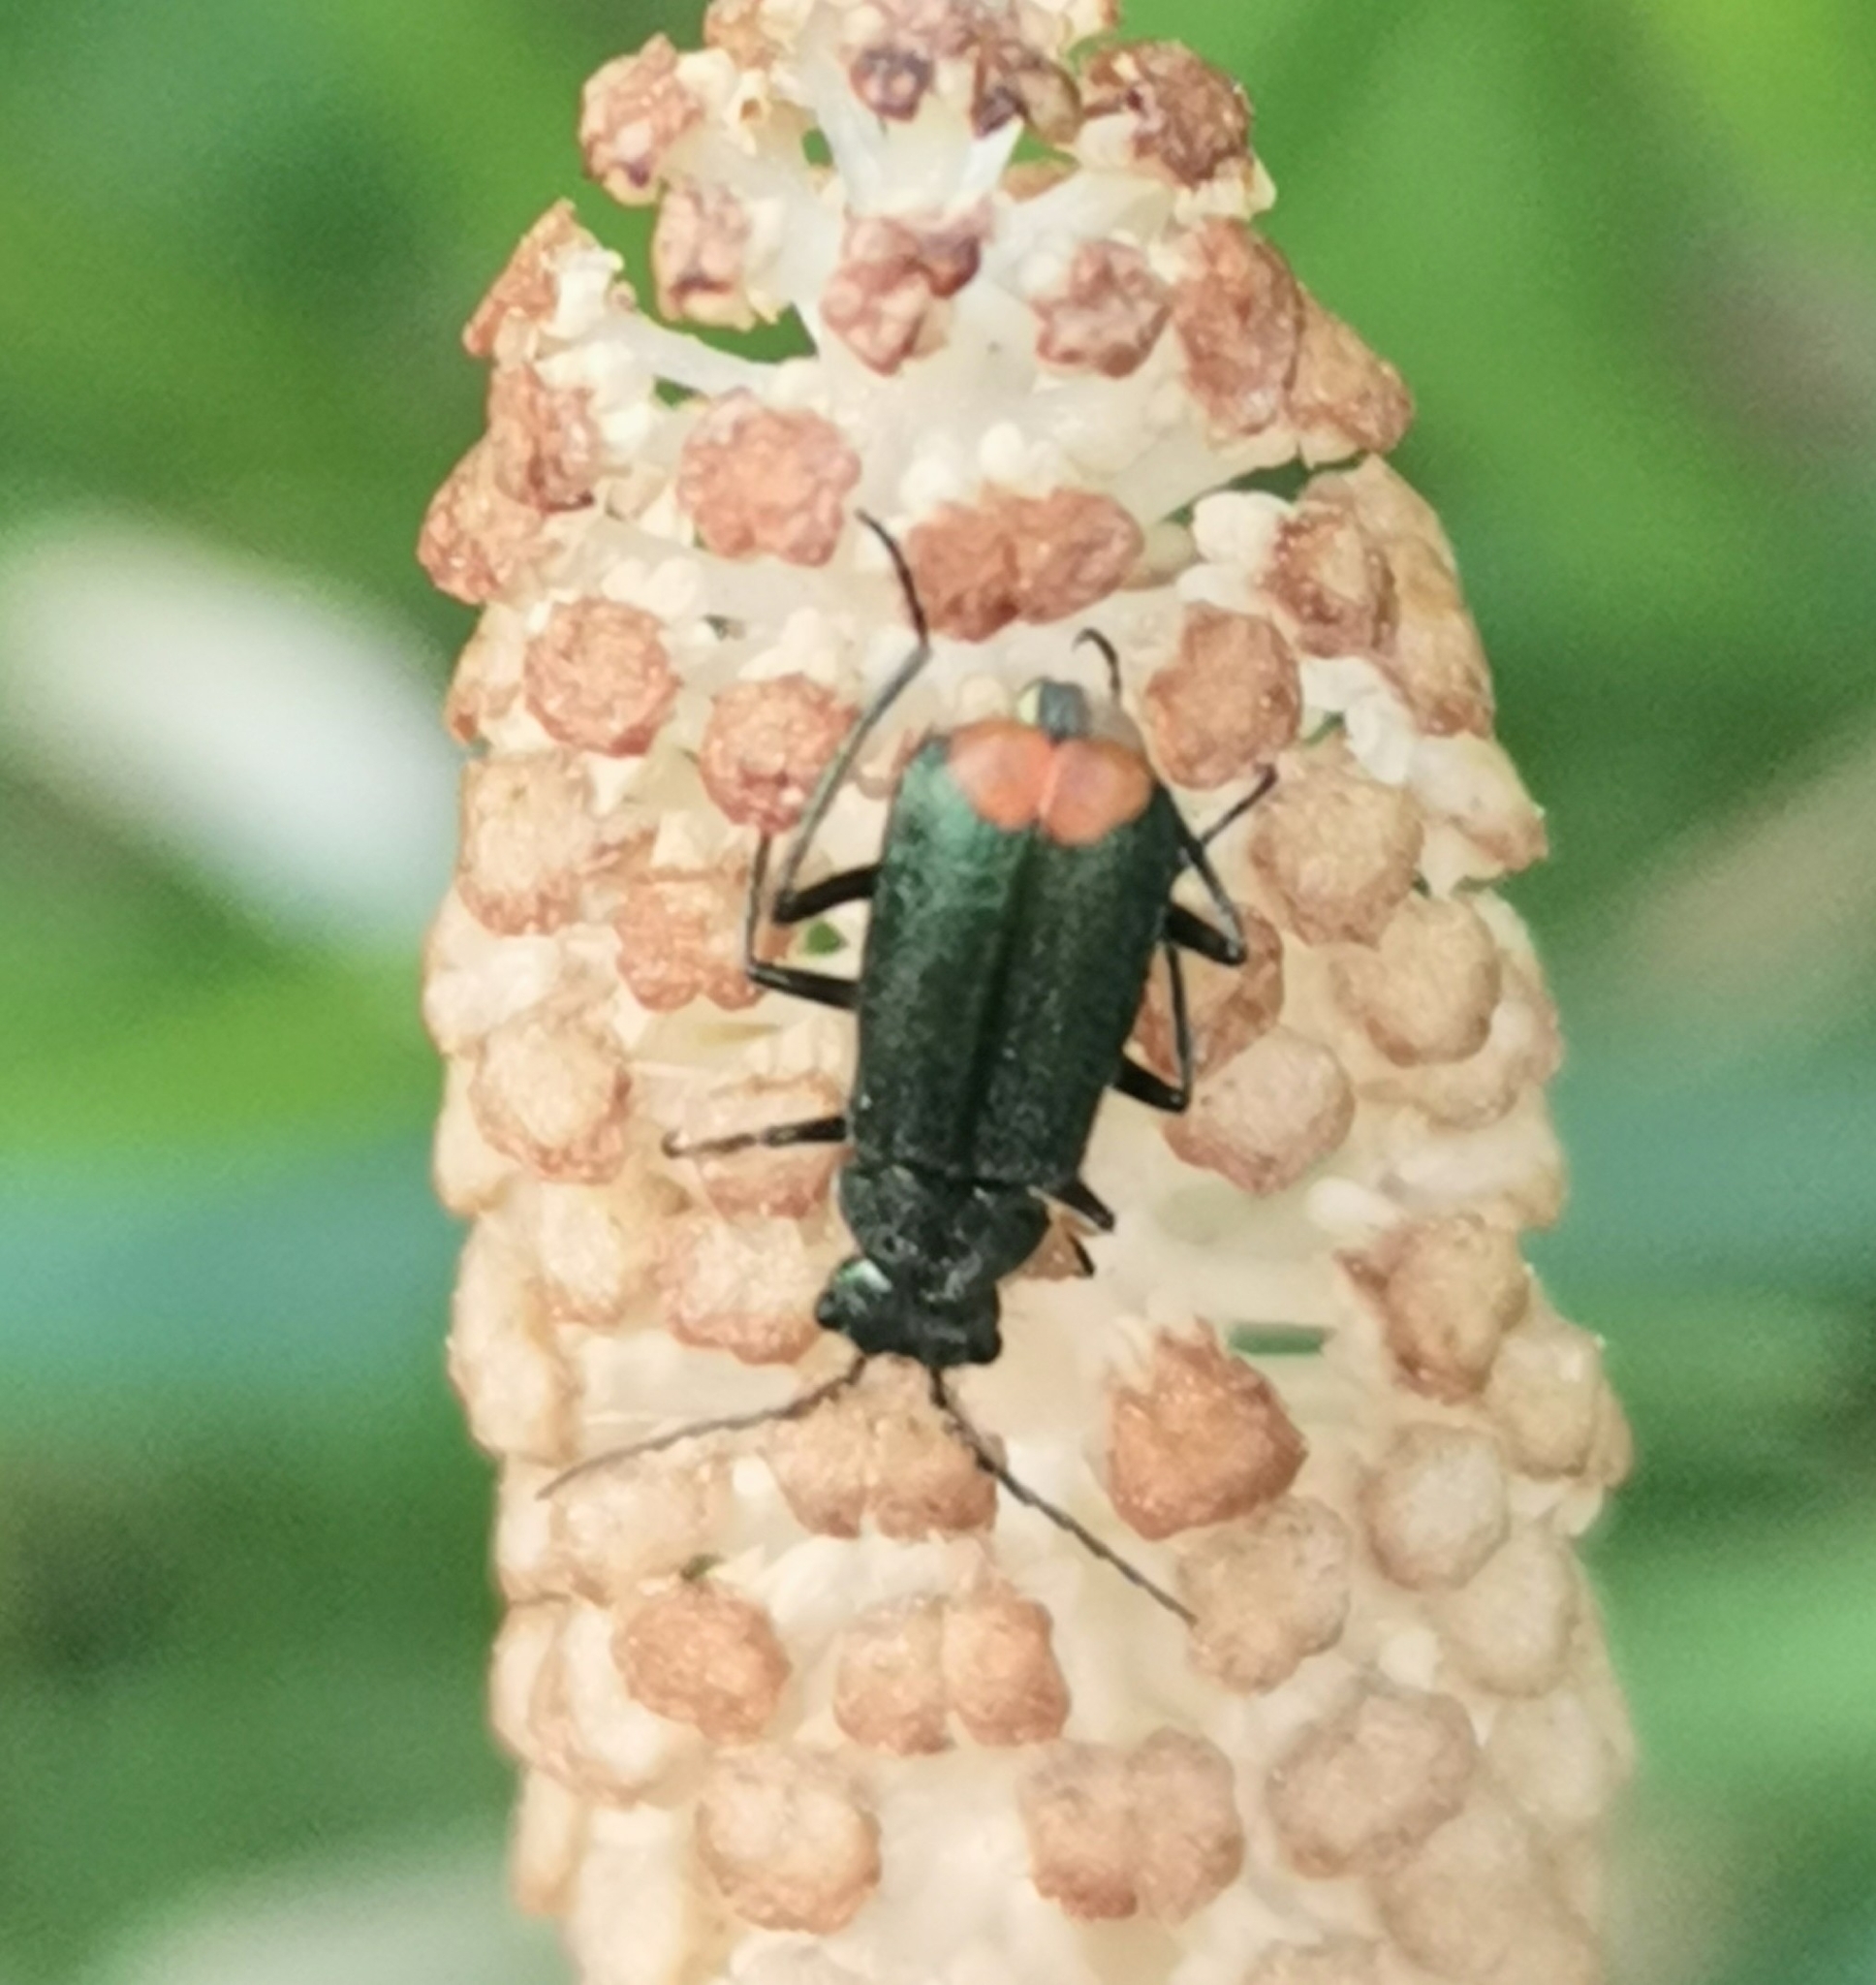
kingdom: Animalia
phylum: Arthropoda
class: Insecta
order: Coleoptera
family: Melyridae
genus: Malachius
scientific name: Malachius bipustulatus
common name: Malachite beetle
